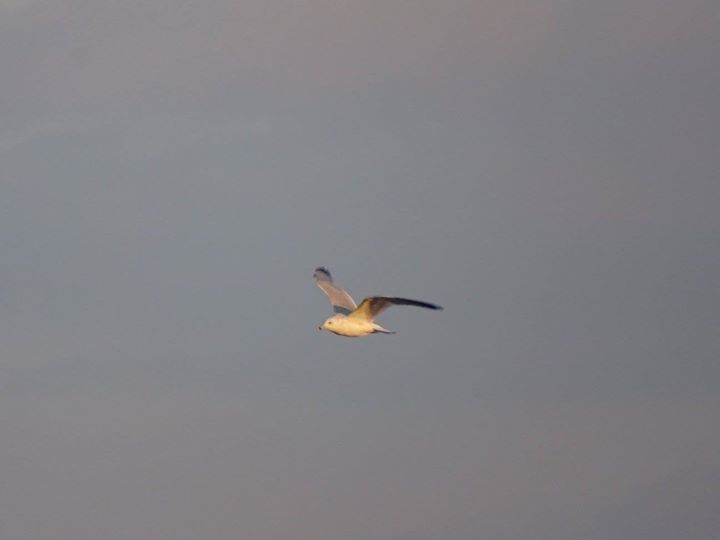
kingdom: Animalia
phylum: Chordata
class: Aves
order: Charadriiformes
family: Laridae
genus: Larus
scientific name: Larus delawarensis
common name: Ring-billed gull
